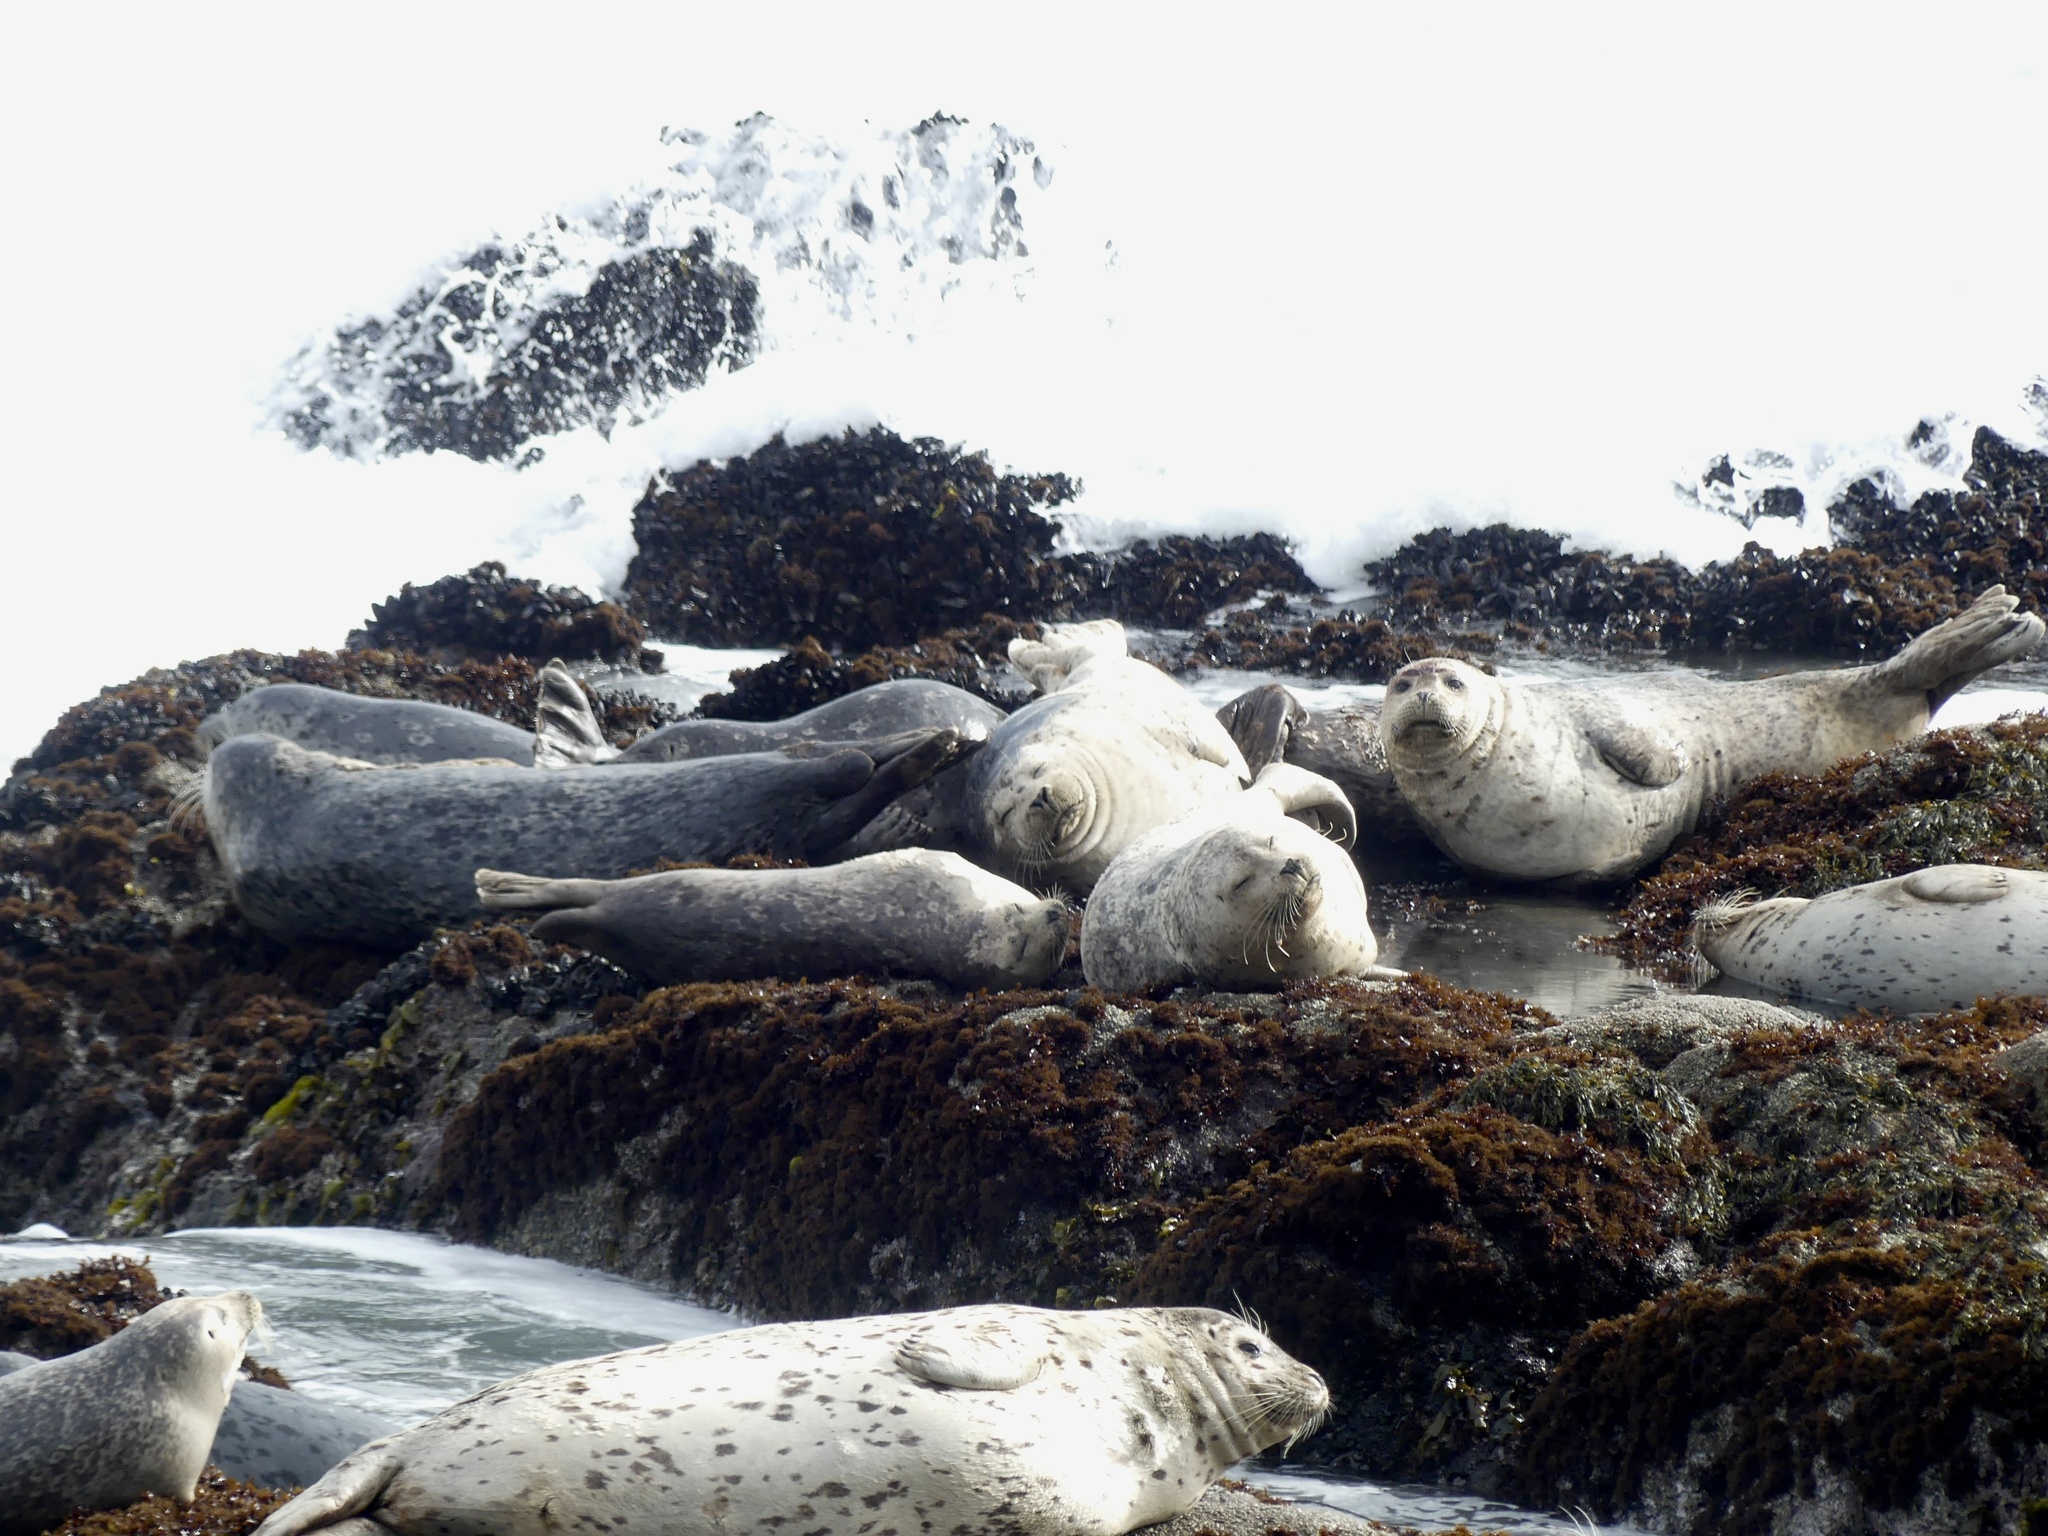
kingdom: Animalia
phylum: Chordata
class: Mammalia
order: Carnivora
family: Phocidae
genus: Phoca
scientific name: Phoca vitulina
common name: Harbor seal
